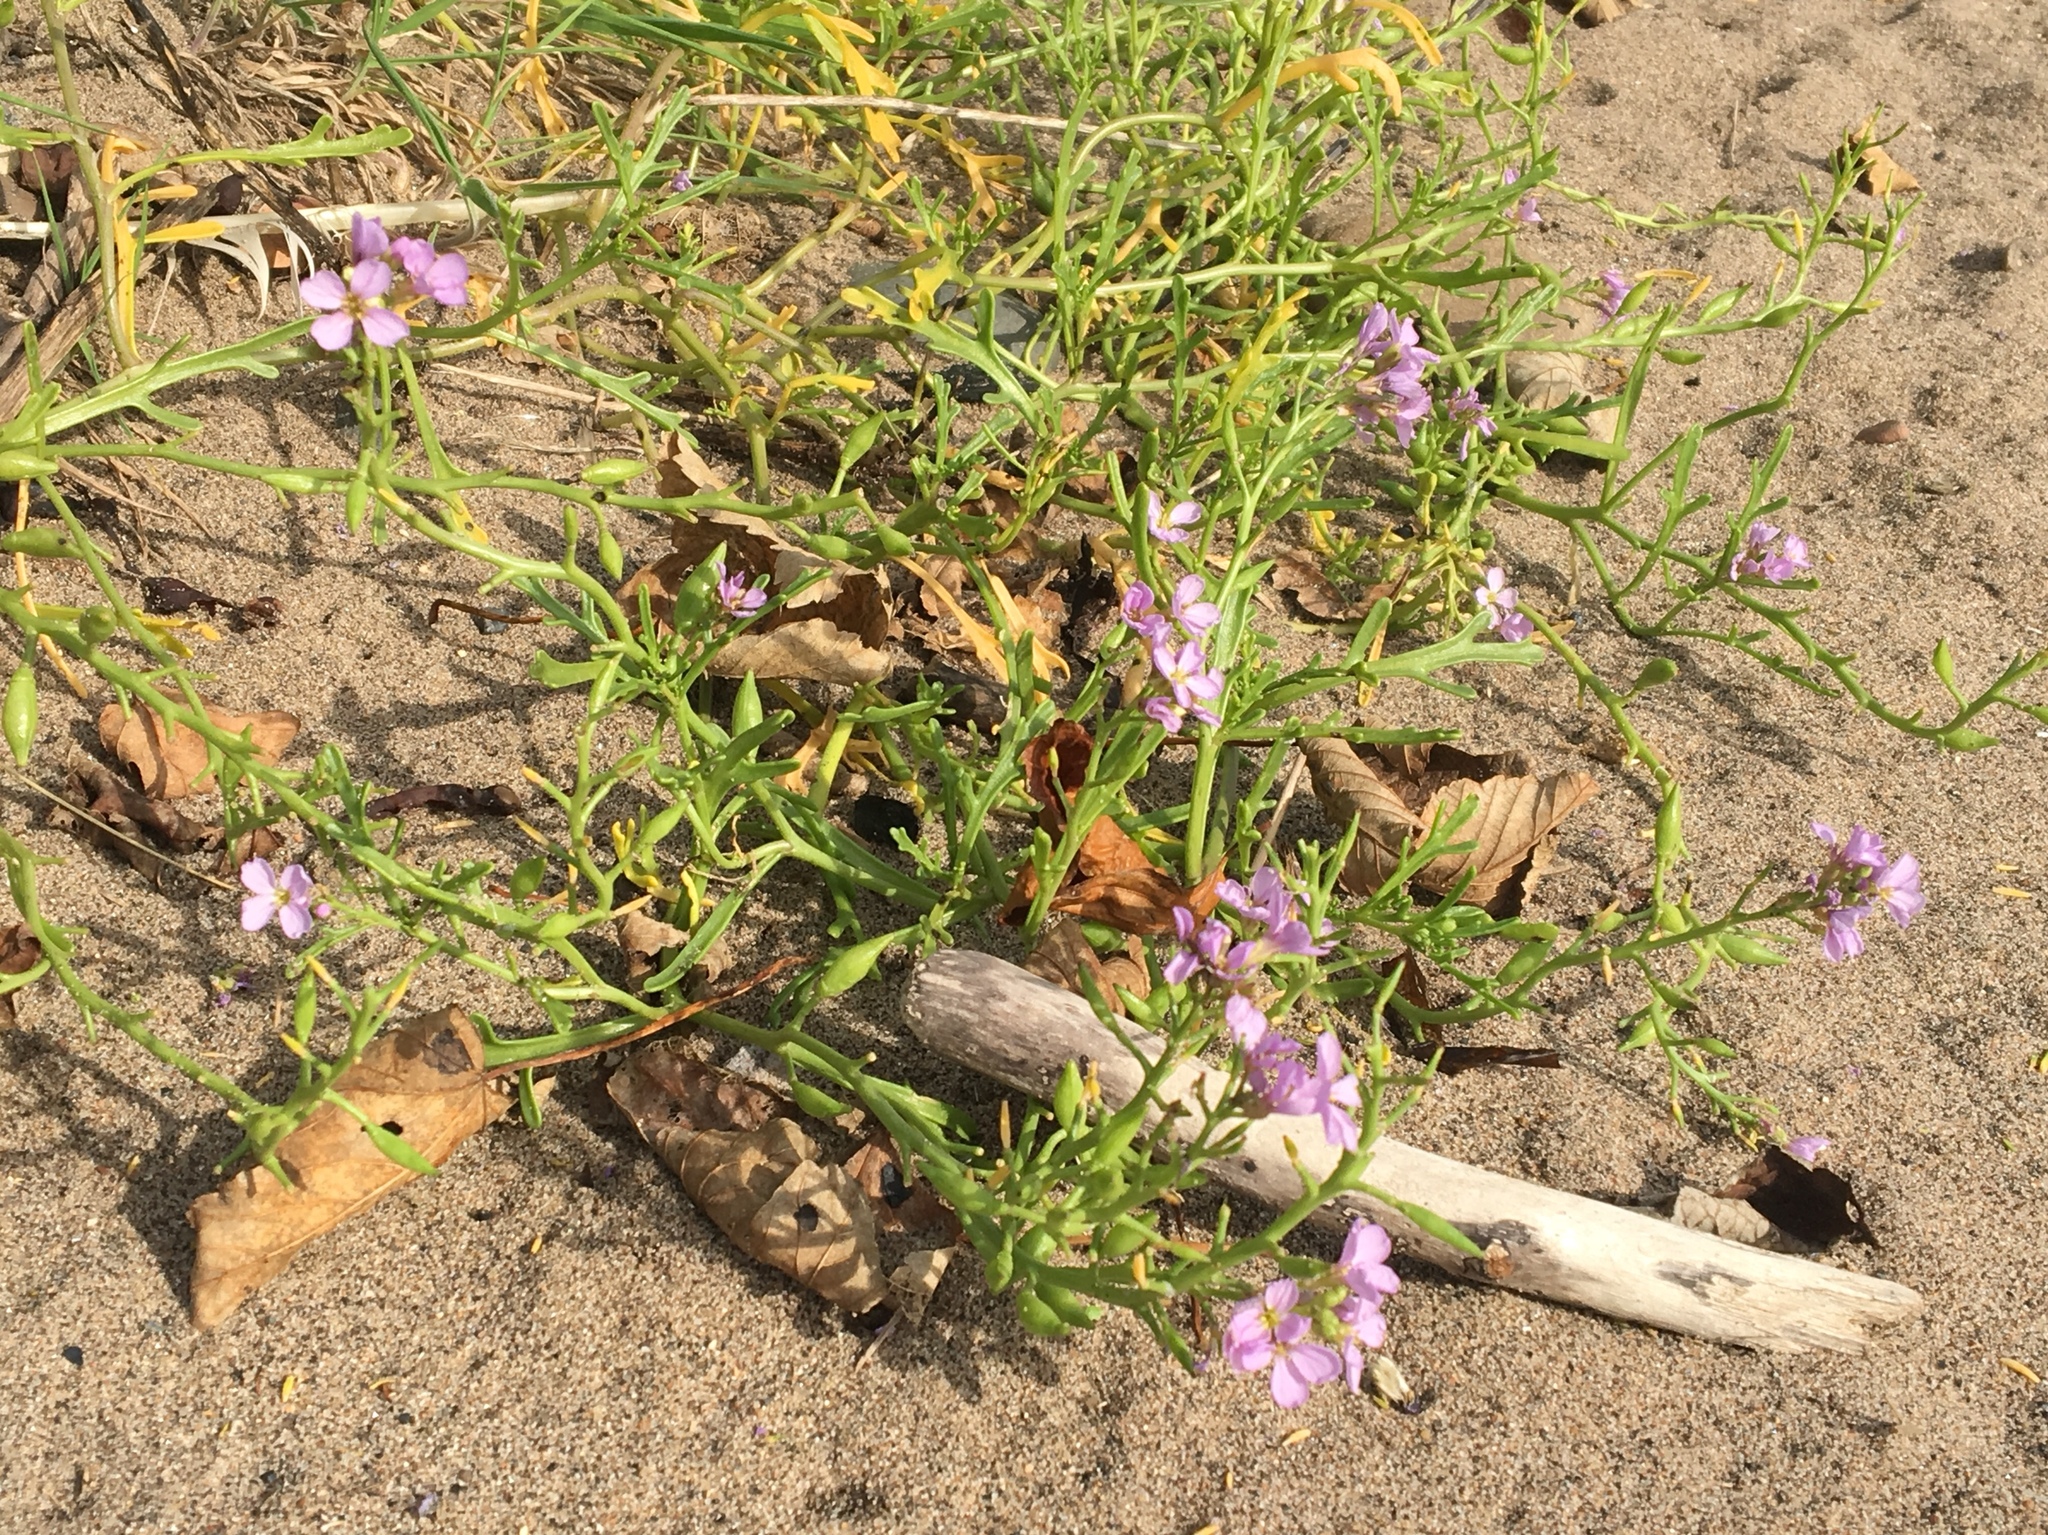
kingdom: Plantae
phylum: Tracheophyta
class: Magnoliopsida
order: Brassicales
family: Brassicaceae
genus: Cakile
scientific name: Cakile maritima
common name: Sea rocket
